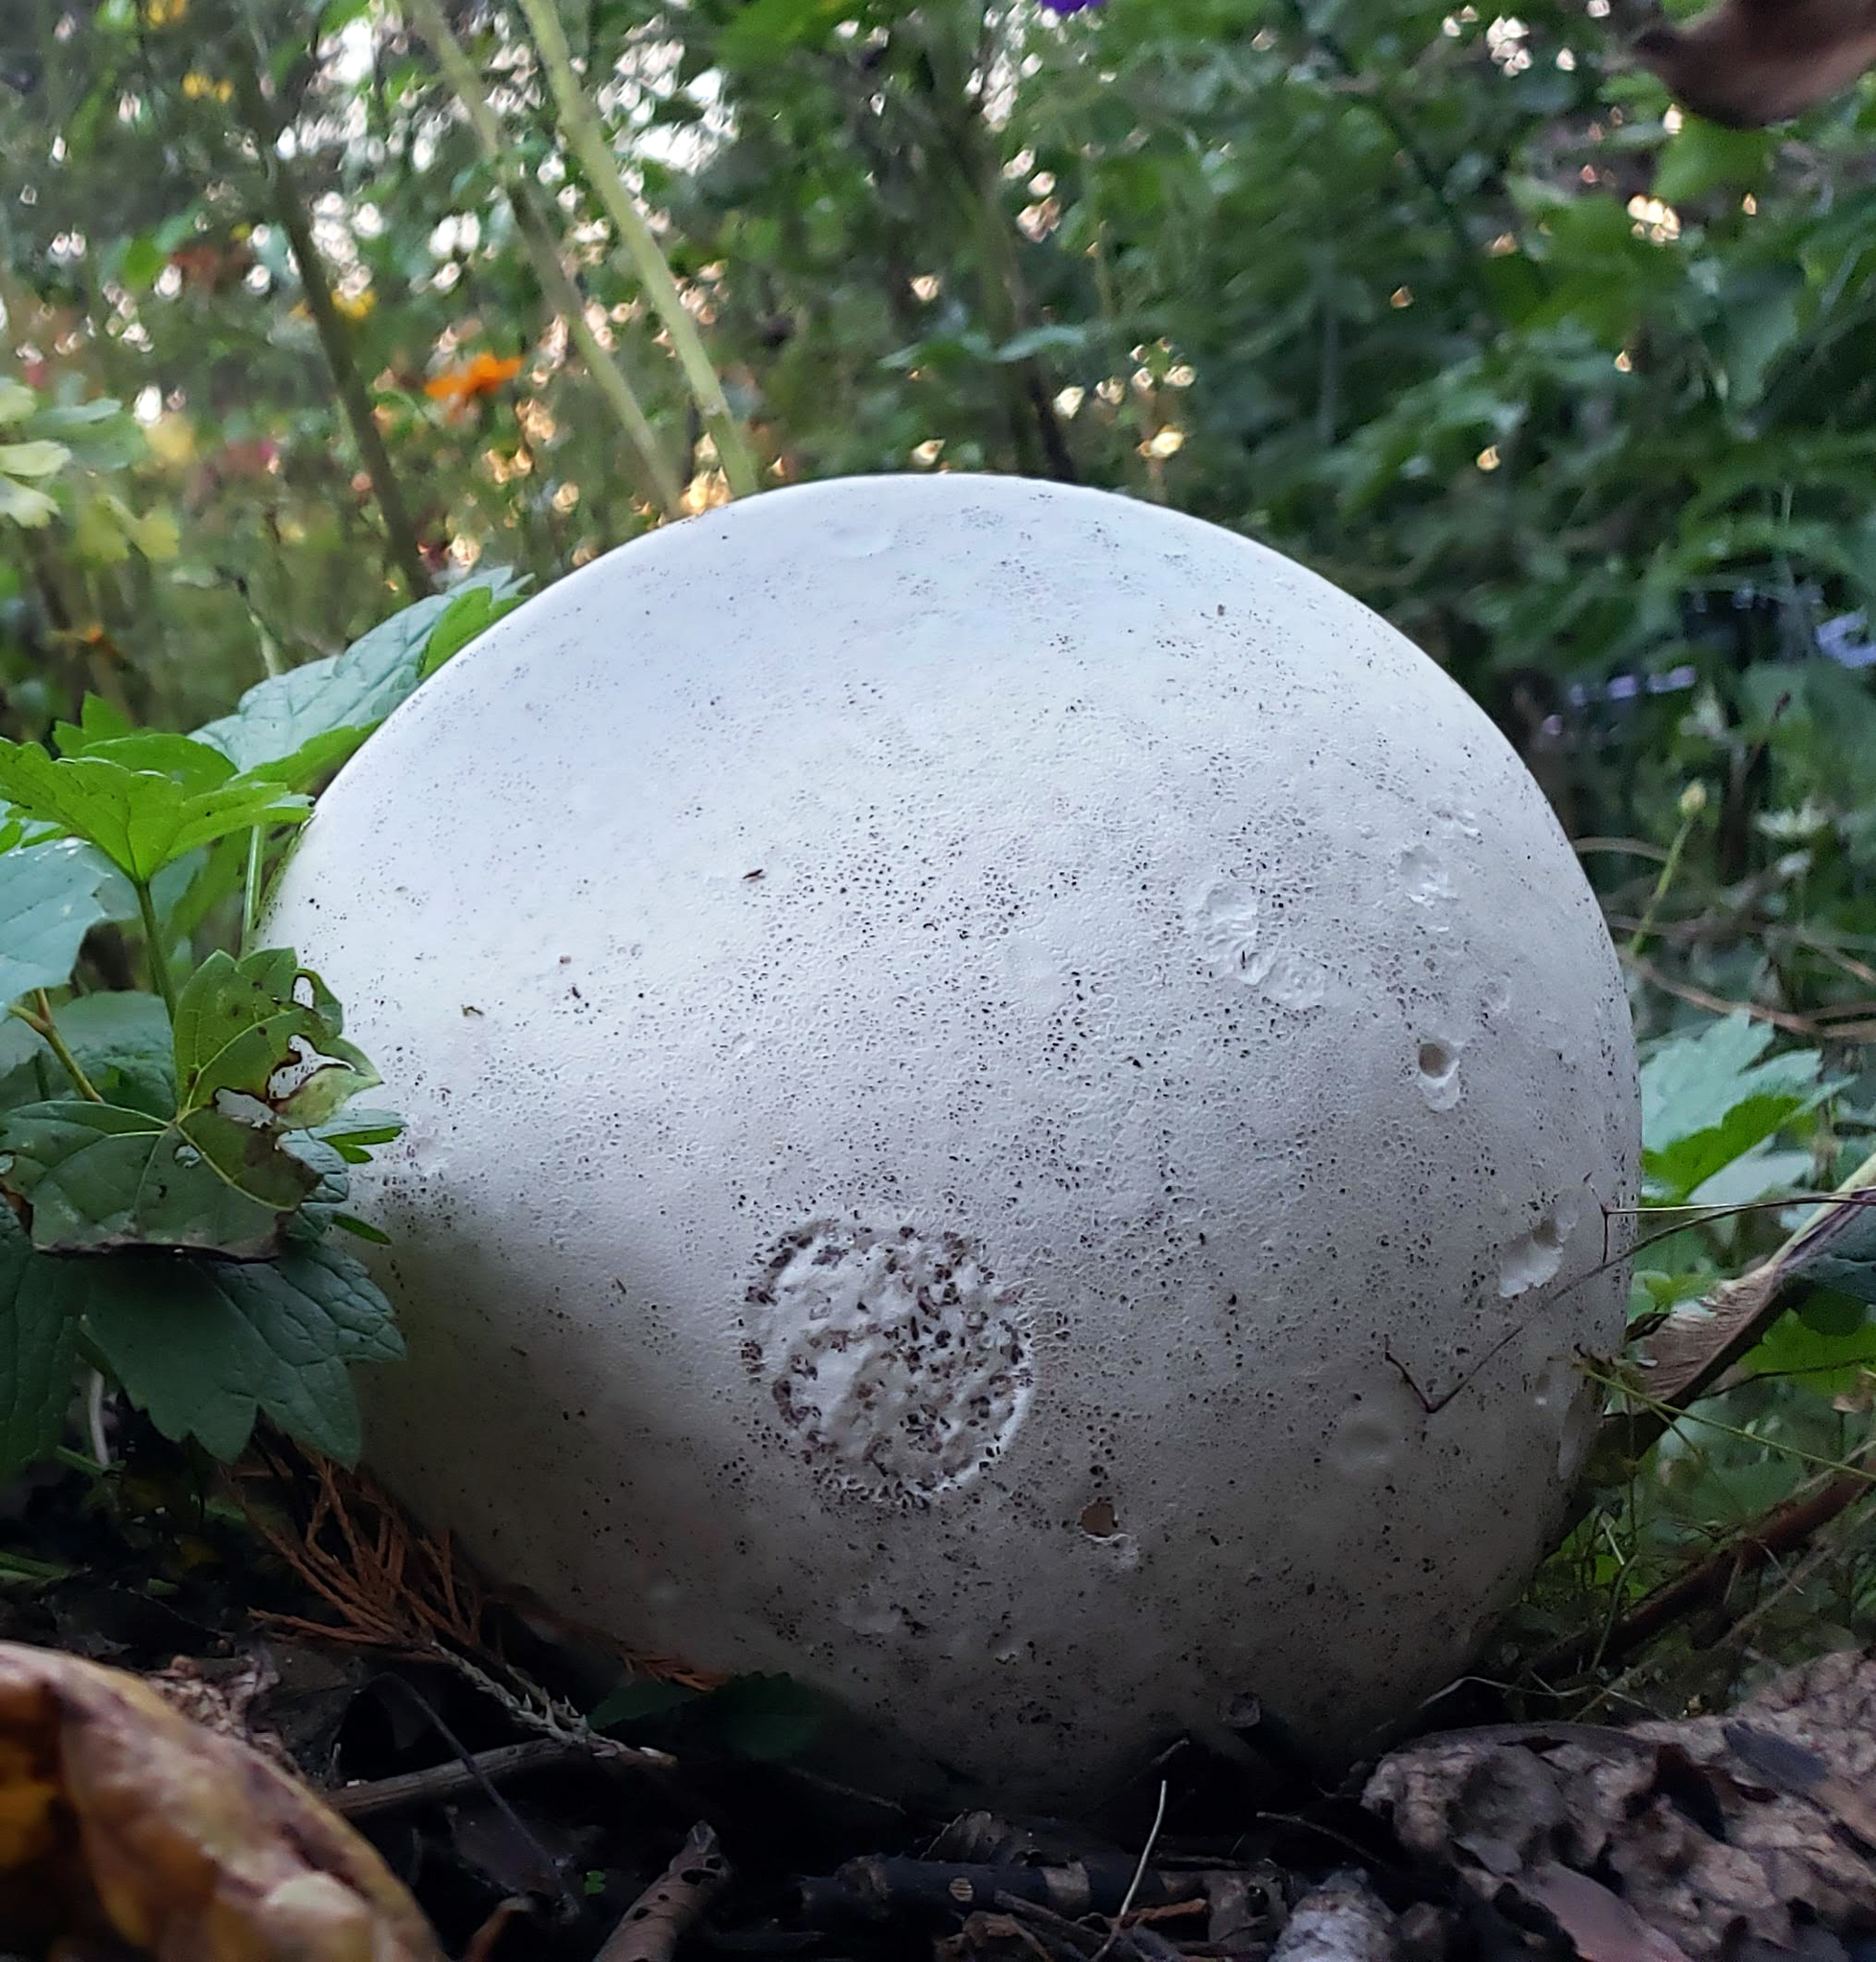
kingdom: Fungi
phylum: Basidiomycota
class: Agaricomycetes
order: Agaricales
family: Lycoperdaceae
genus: Calvatia
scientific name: Calvatia gigantea
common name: Giant puffball
